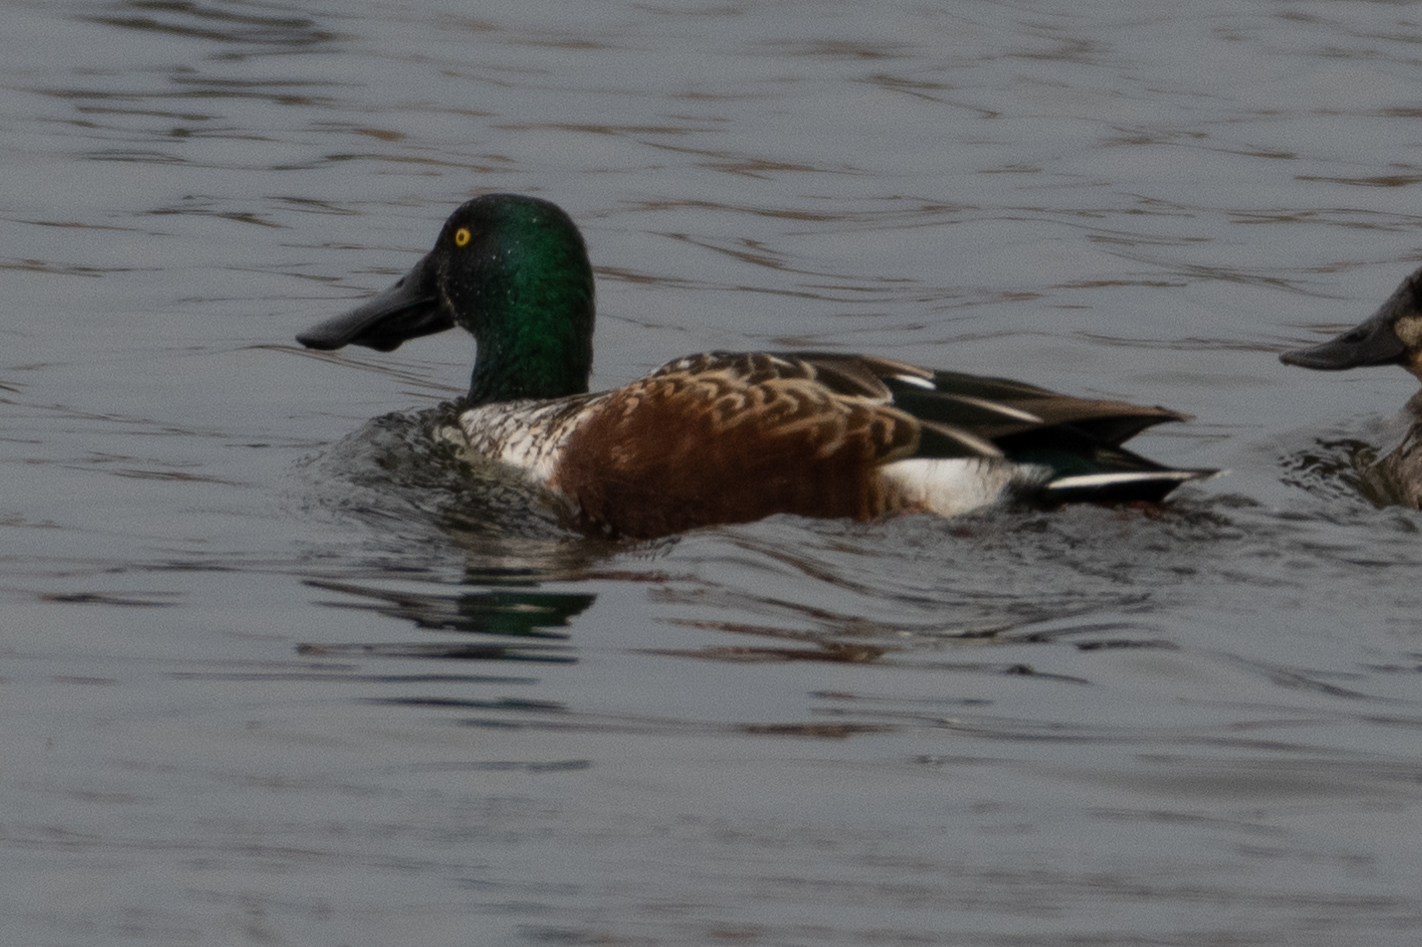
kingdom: Animalia
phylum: Chordata
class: Aves
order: Anseriformes
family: Anatidae
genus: Spatula
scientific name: Spatula clypeata
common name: Northern shoveler
